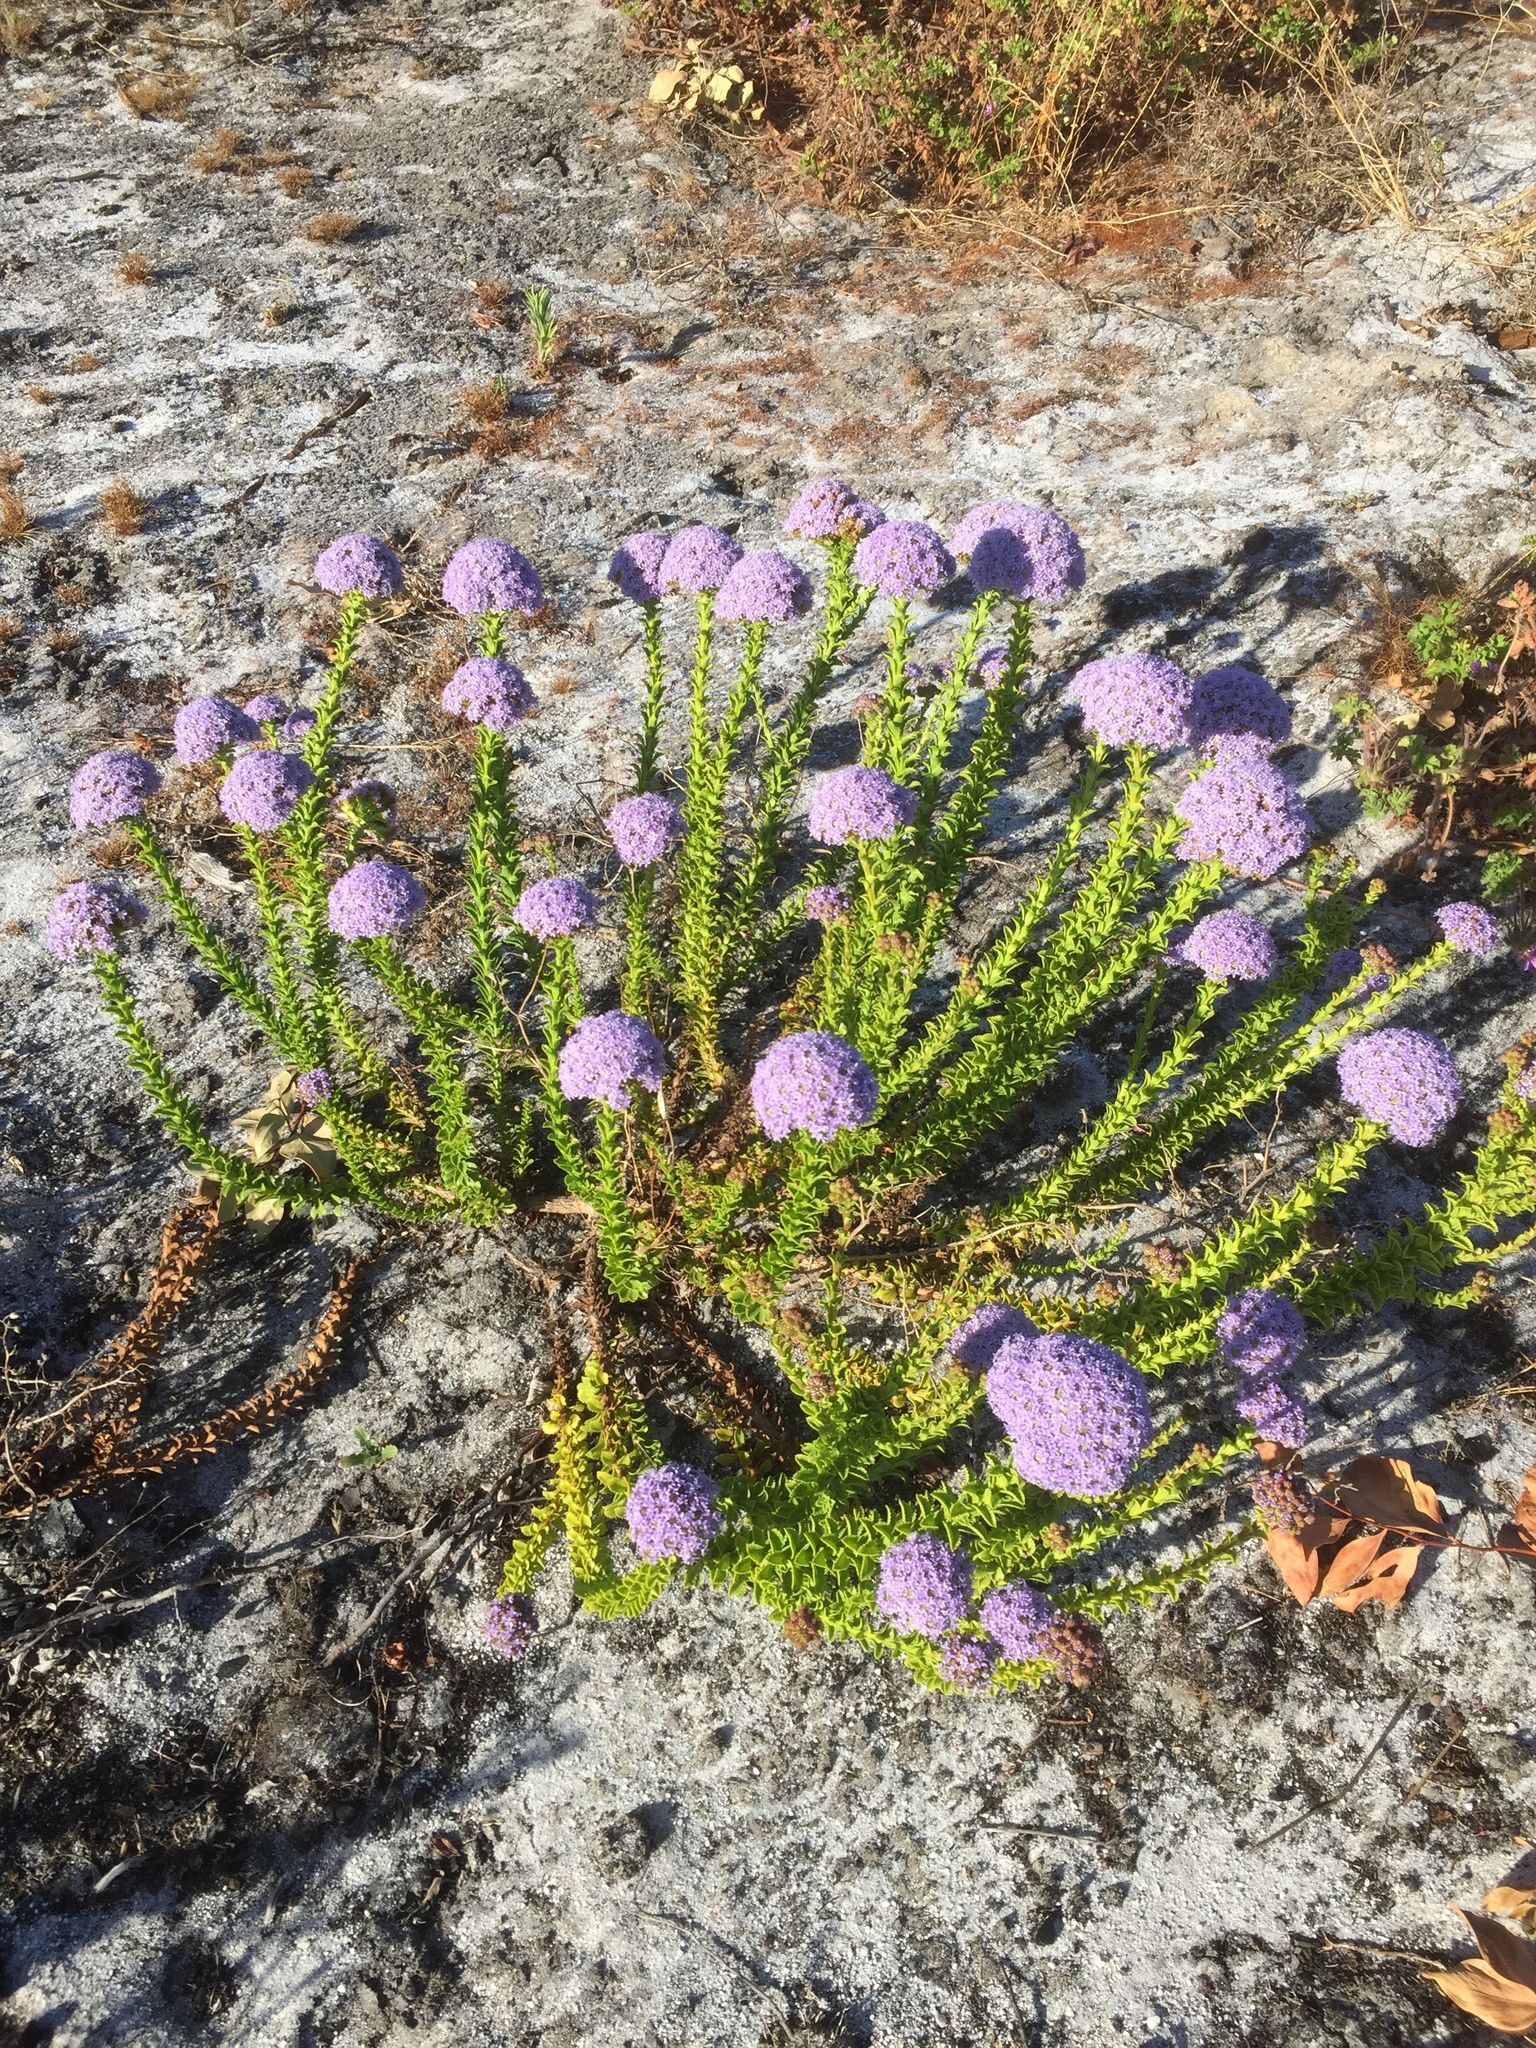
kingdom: Plantae
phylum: Tracheophyta
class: Magnoliopsida
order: Lamiales
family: Scrophulariaceae
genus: Pseudoselago
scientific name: Pseudoselago serrata
